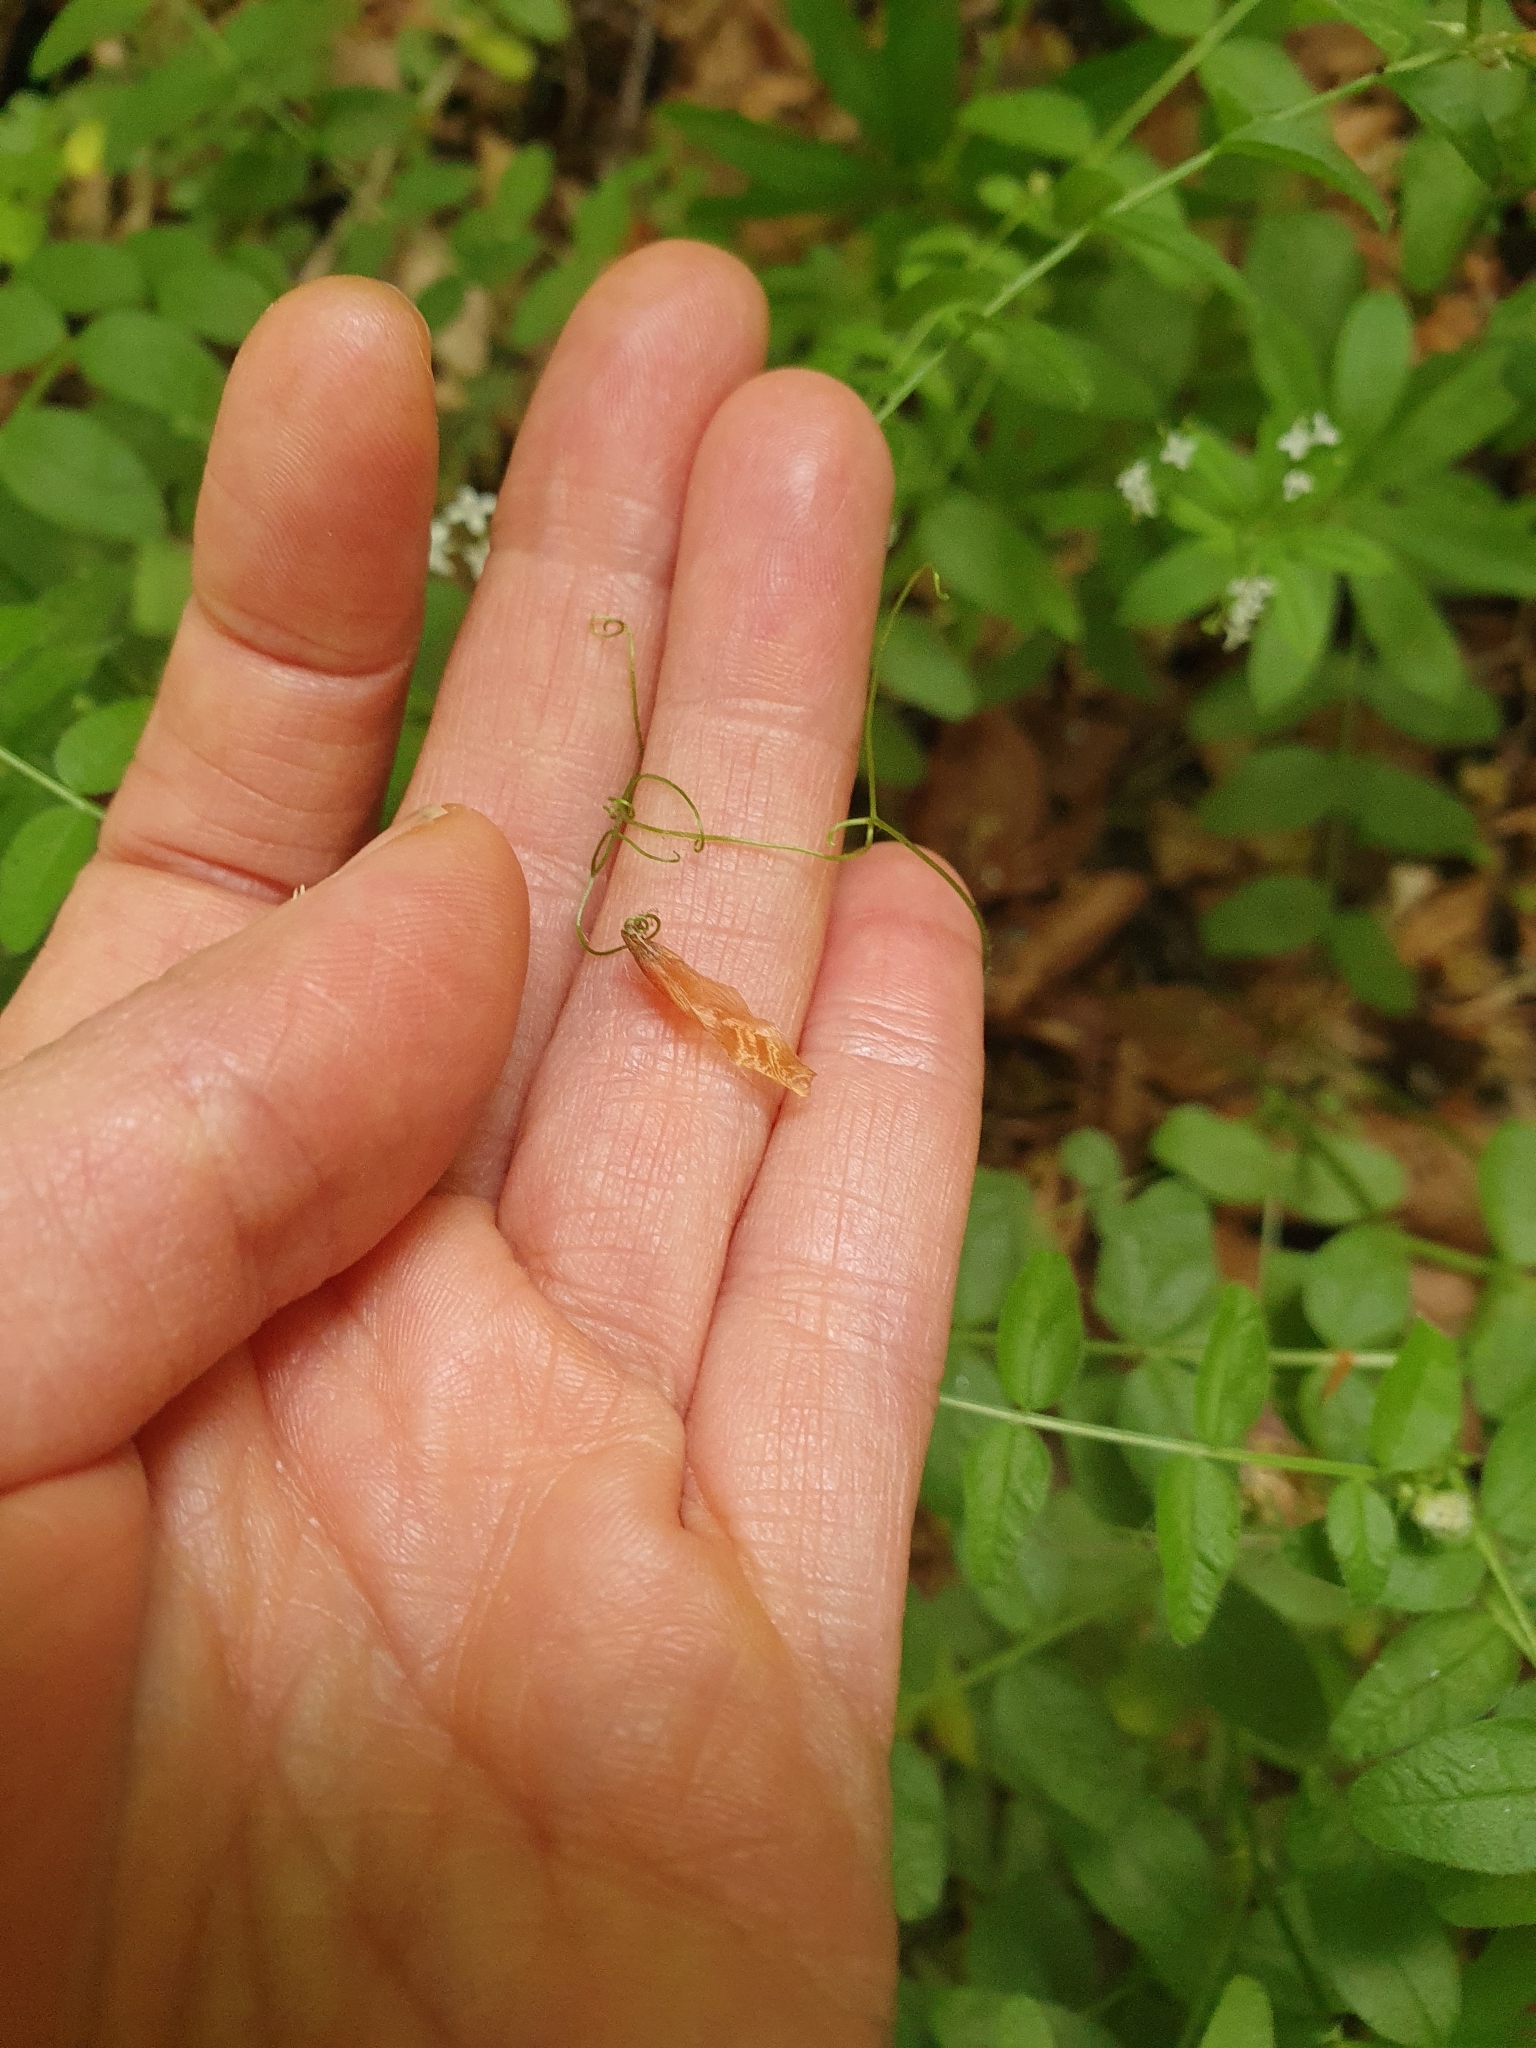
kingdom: Plantae
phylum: Tracheophyta
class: Magnoliopsida
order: Fabales
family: Fabaceae
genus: Vicia
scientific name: Vicia sepium
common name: Bush vetch
